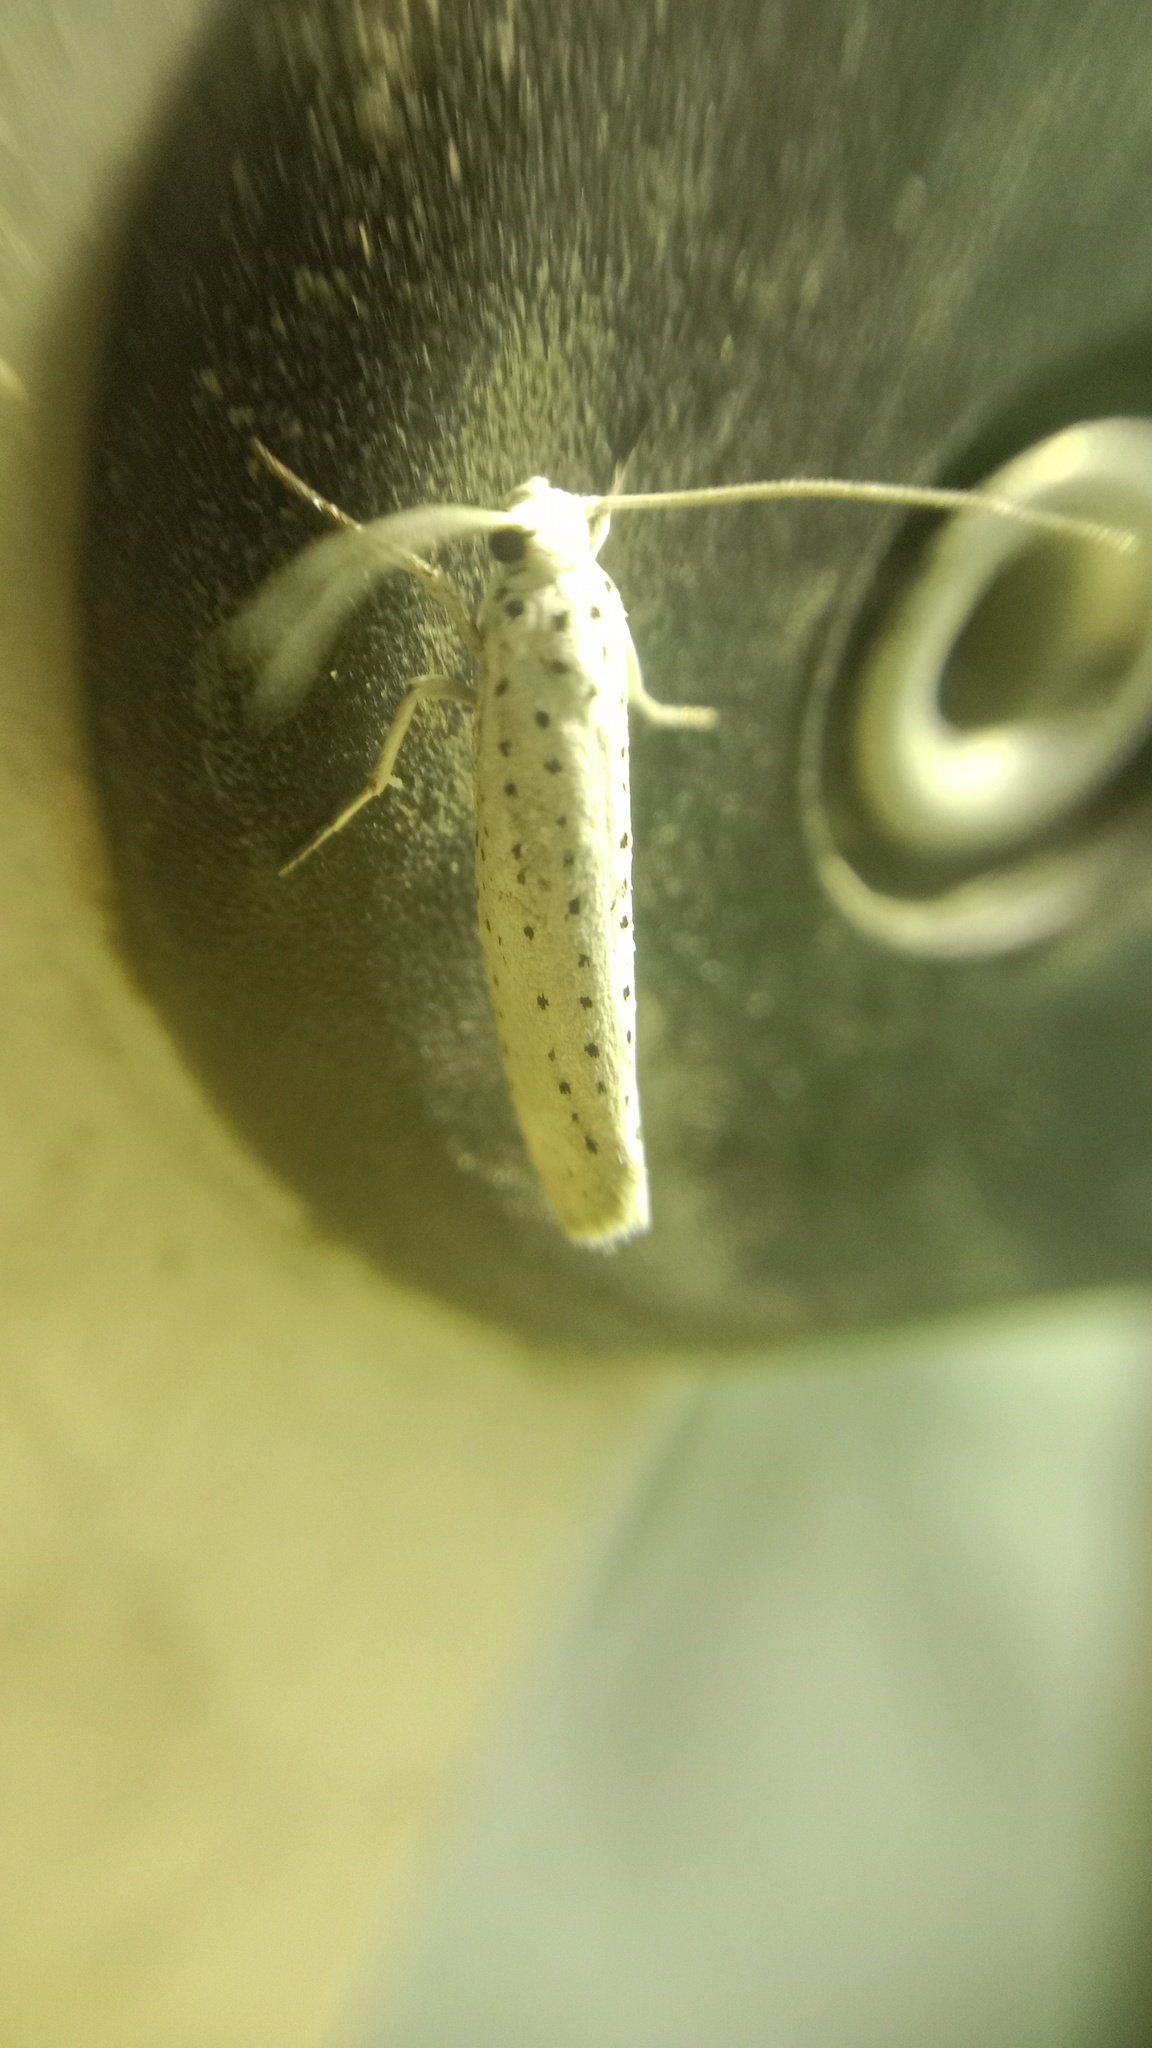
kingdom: Animalia
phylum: Arthropoda
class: Insecta
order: Lepidoptera
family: Yponomeutidae
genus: Yponomeuta
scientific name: Yponomeuta evonymella
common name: Bird-cherry ermine
